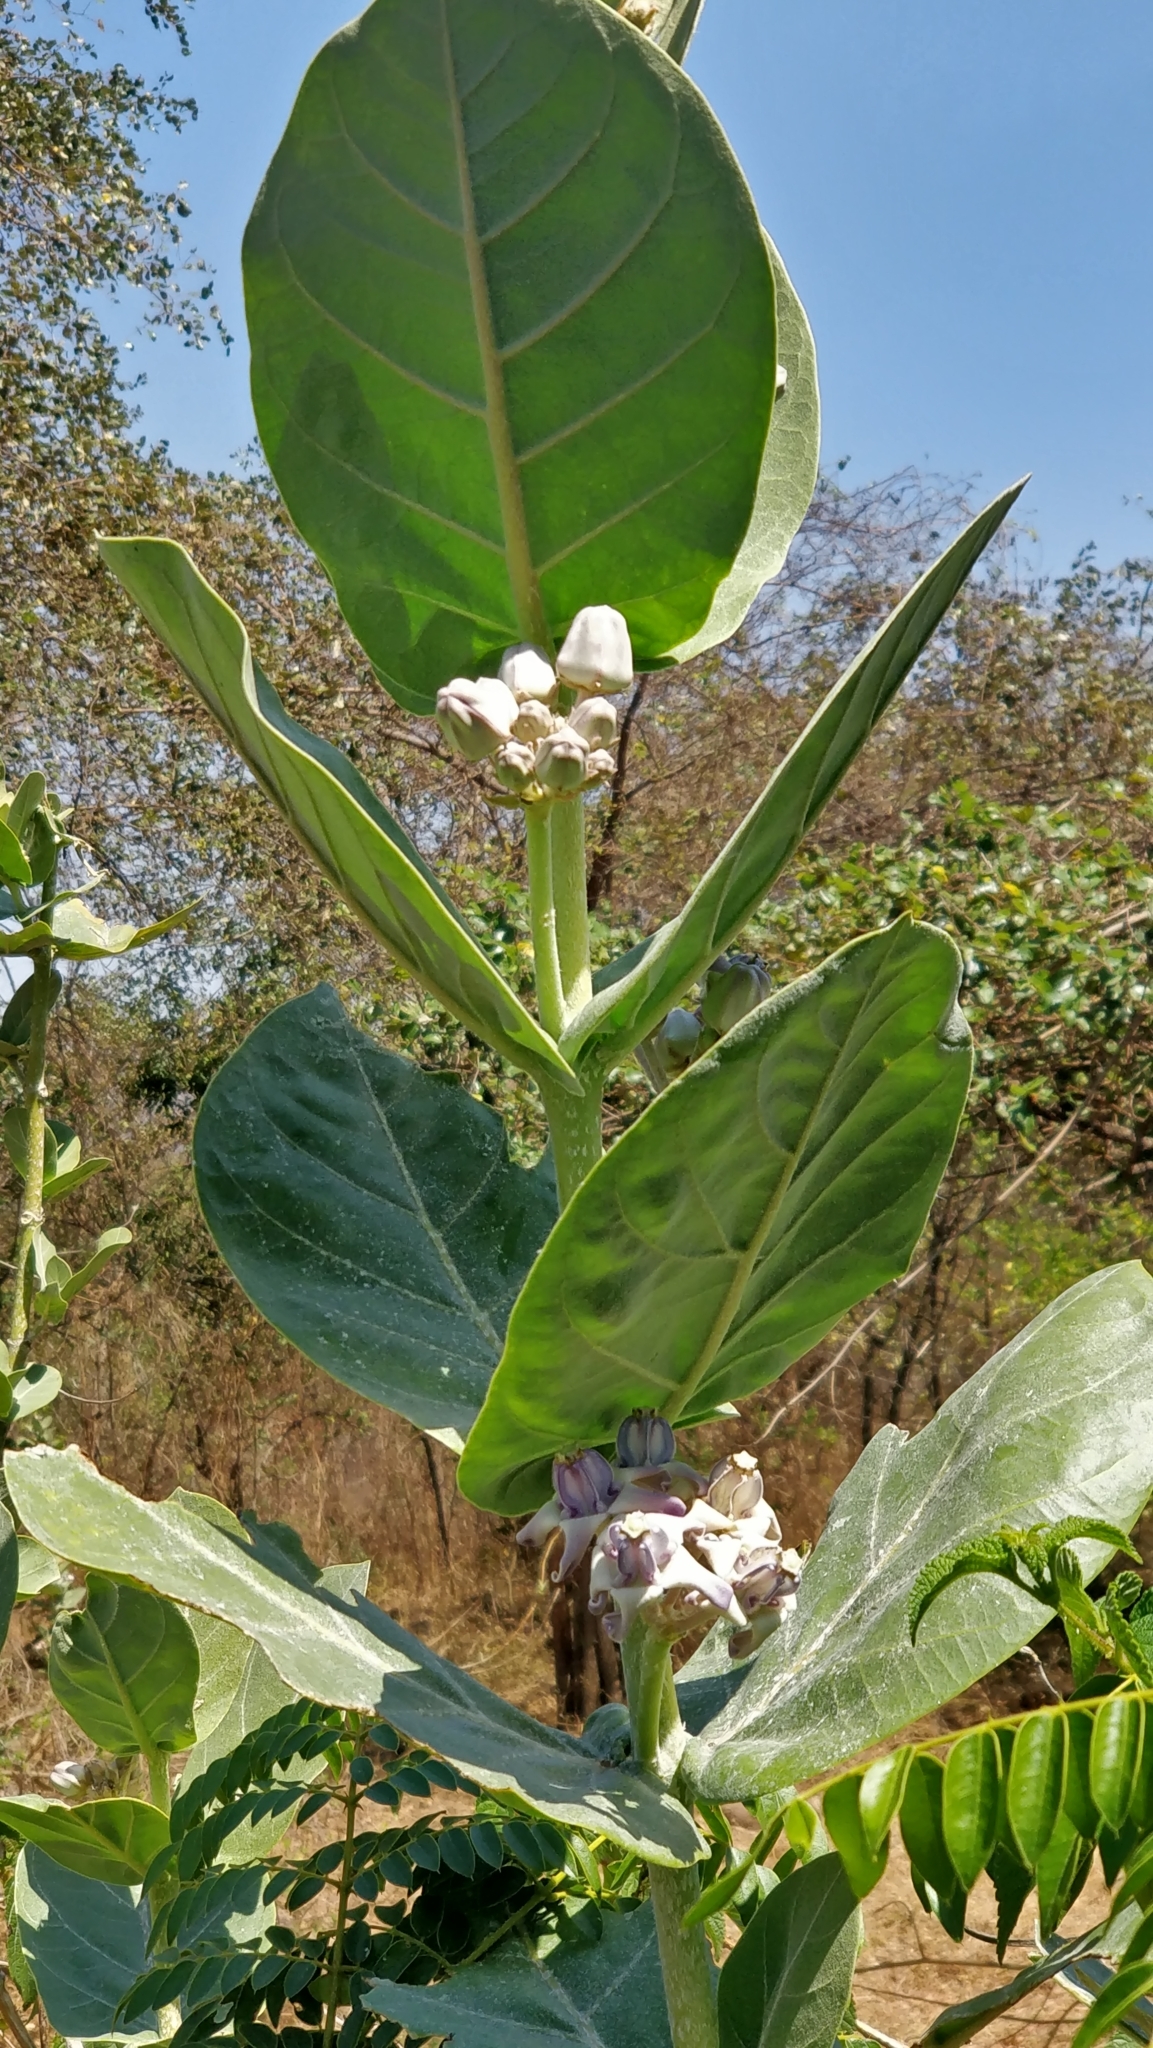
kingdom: Plantae
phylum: Tracheophyta
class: Magnoliopsida
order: Gentianales
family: Apocynaceae
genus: Calotropis
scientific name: Calotropis gigantea
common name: Crown flower
